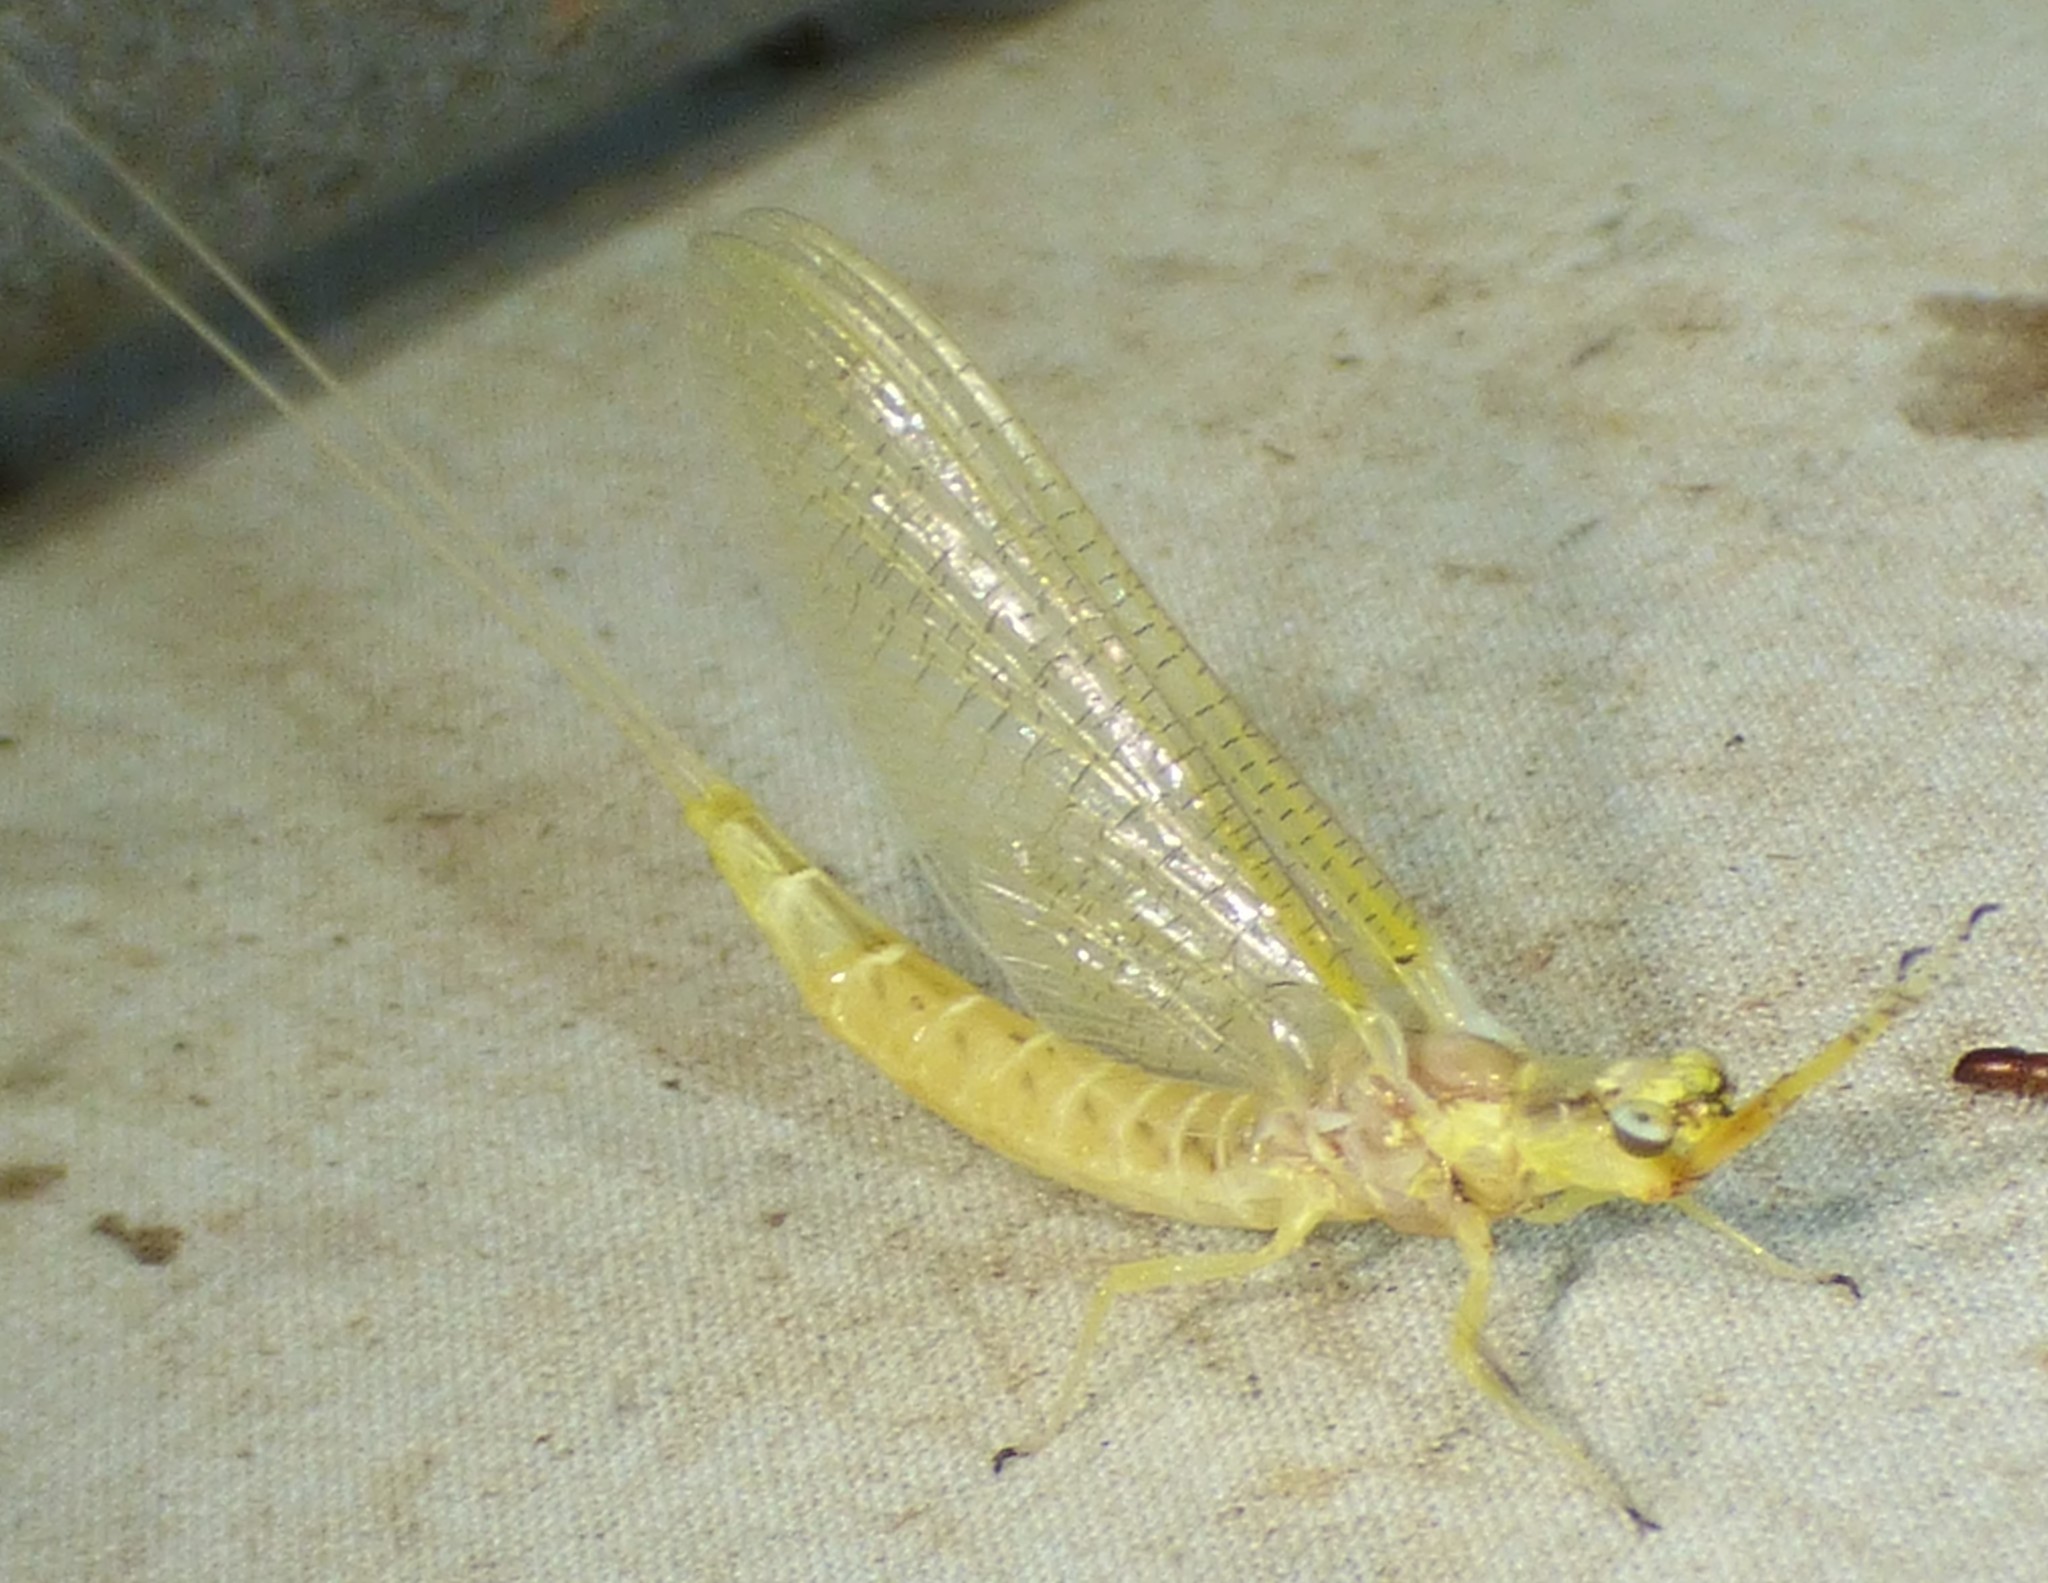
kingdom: Animalia
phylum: Arthropoda
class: Insecta
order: Ephemeroptera
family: Ephemeridae
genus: Hexagenia
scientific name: Hexagenia limbata
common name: Giant mayfly
